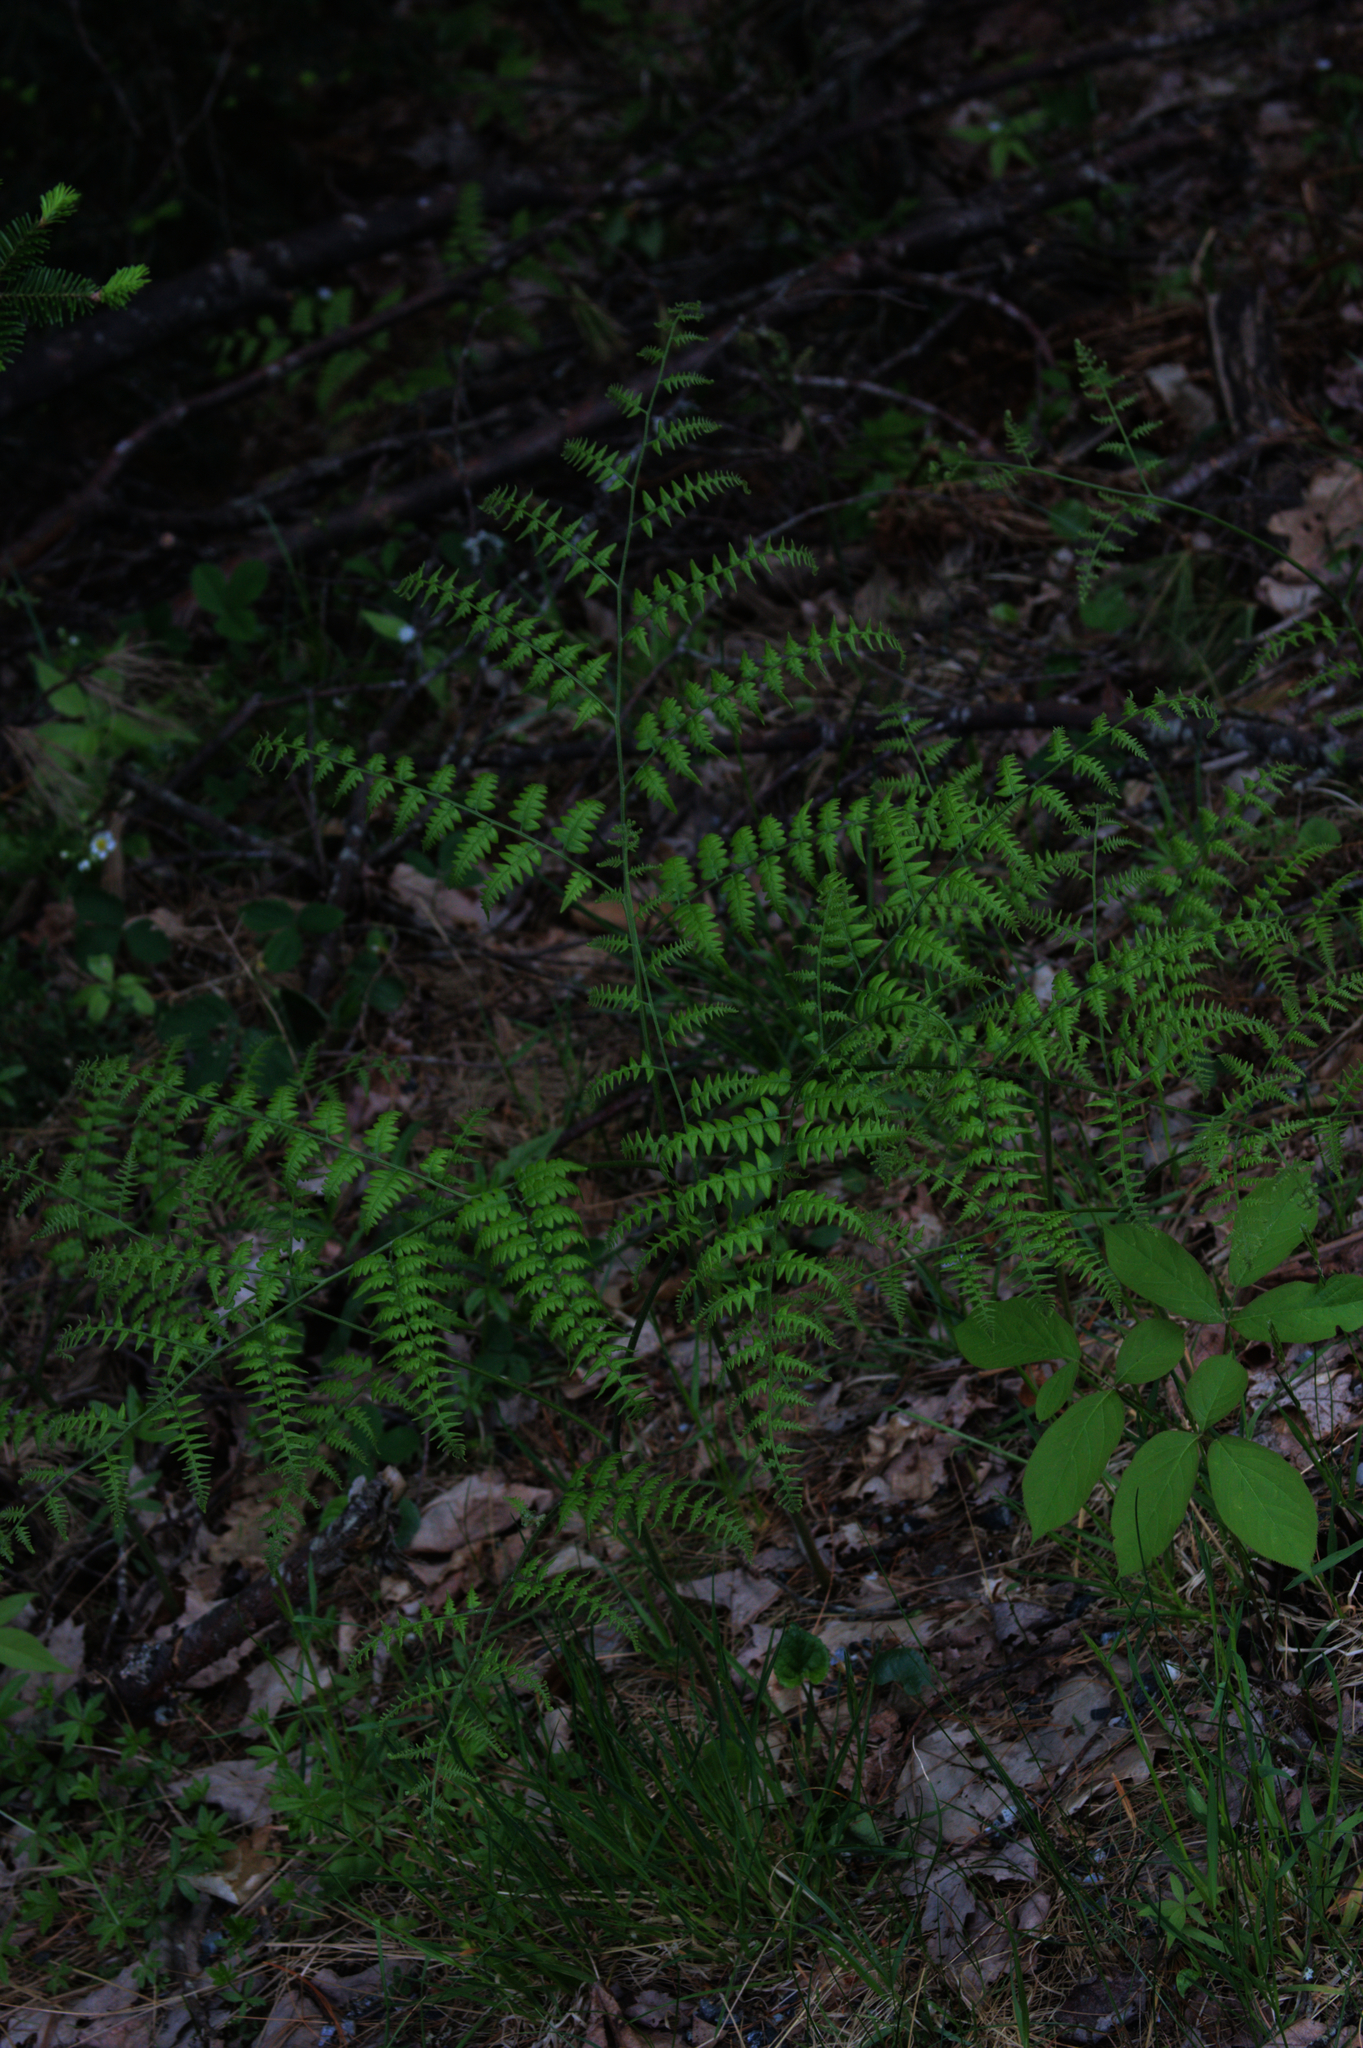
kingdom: Plantae
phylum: Tracheophyta
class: Polypodiopsida
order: Polypodiales
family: Dennstaedtiaceae
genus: Pteridium
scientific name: Pteridium aquilinum
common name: Bracken
